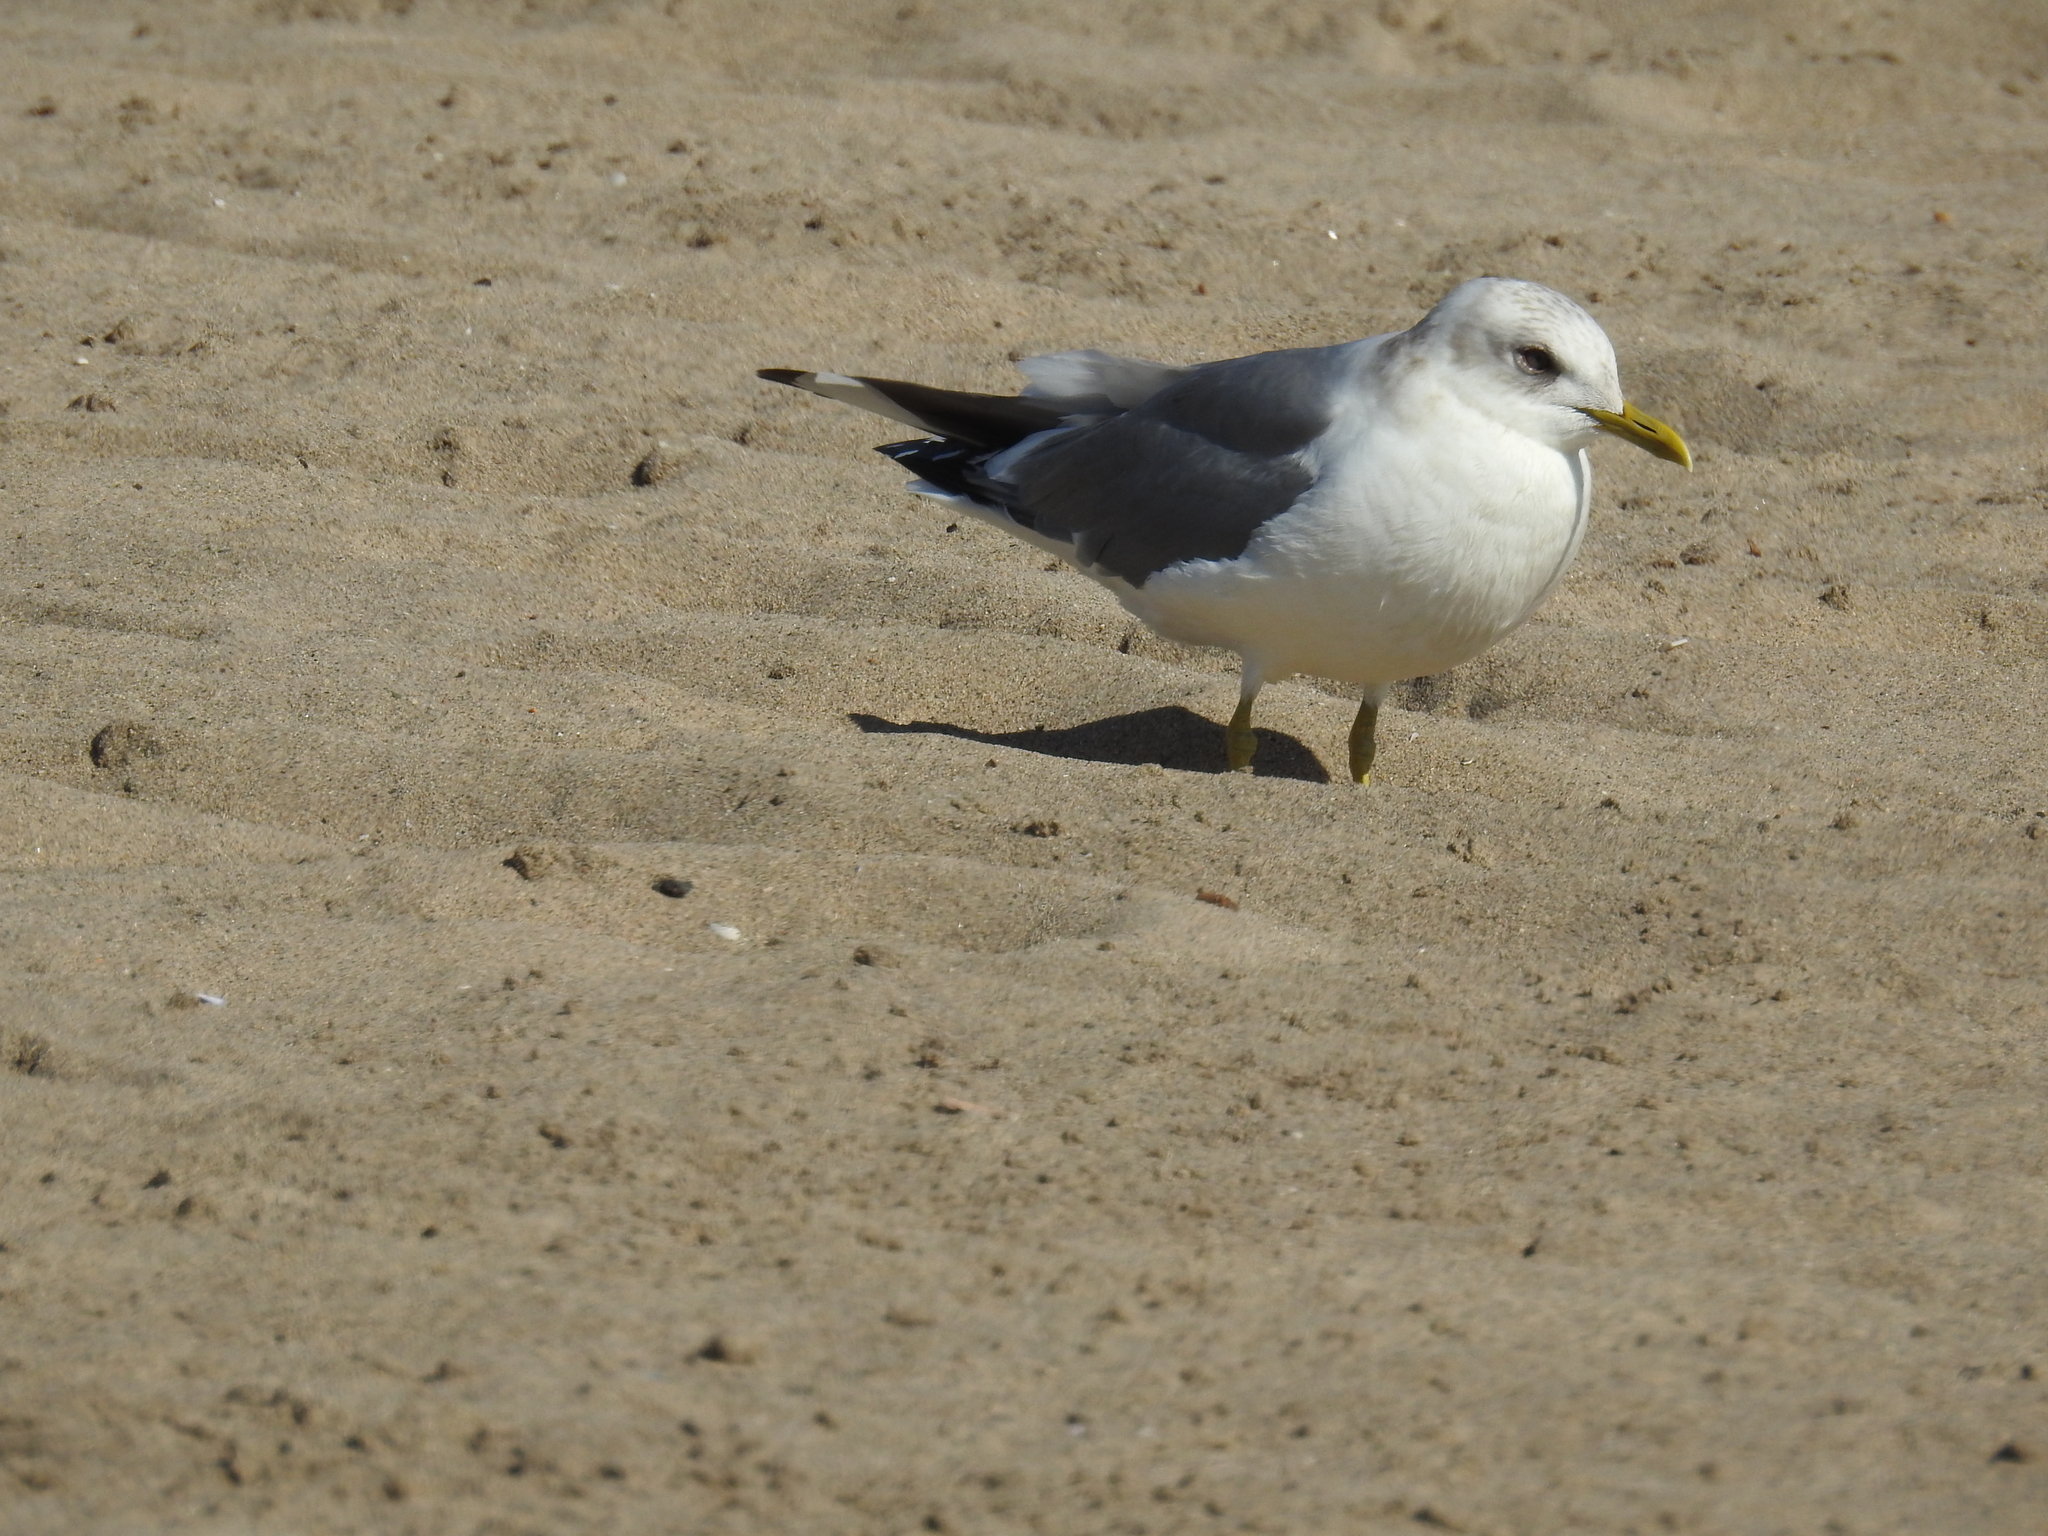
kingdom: Animalia
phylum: Chordata
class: Aves
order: Charadriiformes
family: Laridae
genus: Larus
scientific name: Larus brachyrhynchus
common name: Short-billed gull
